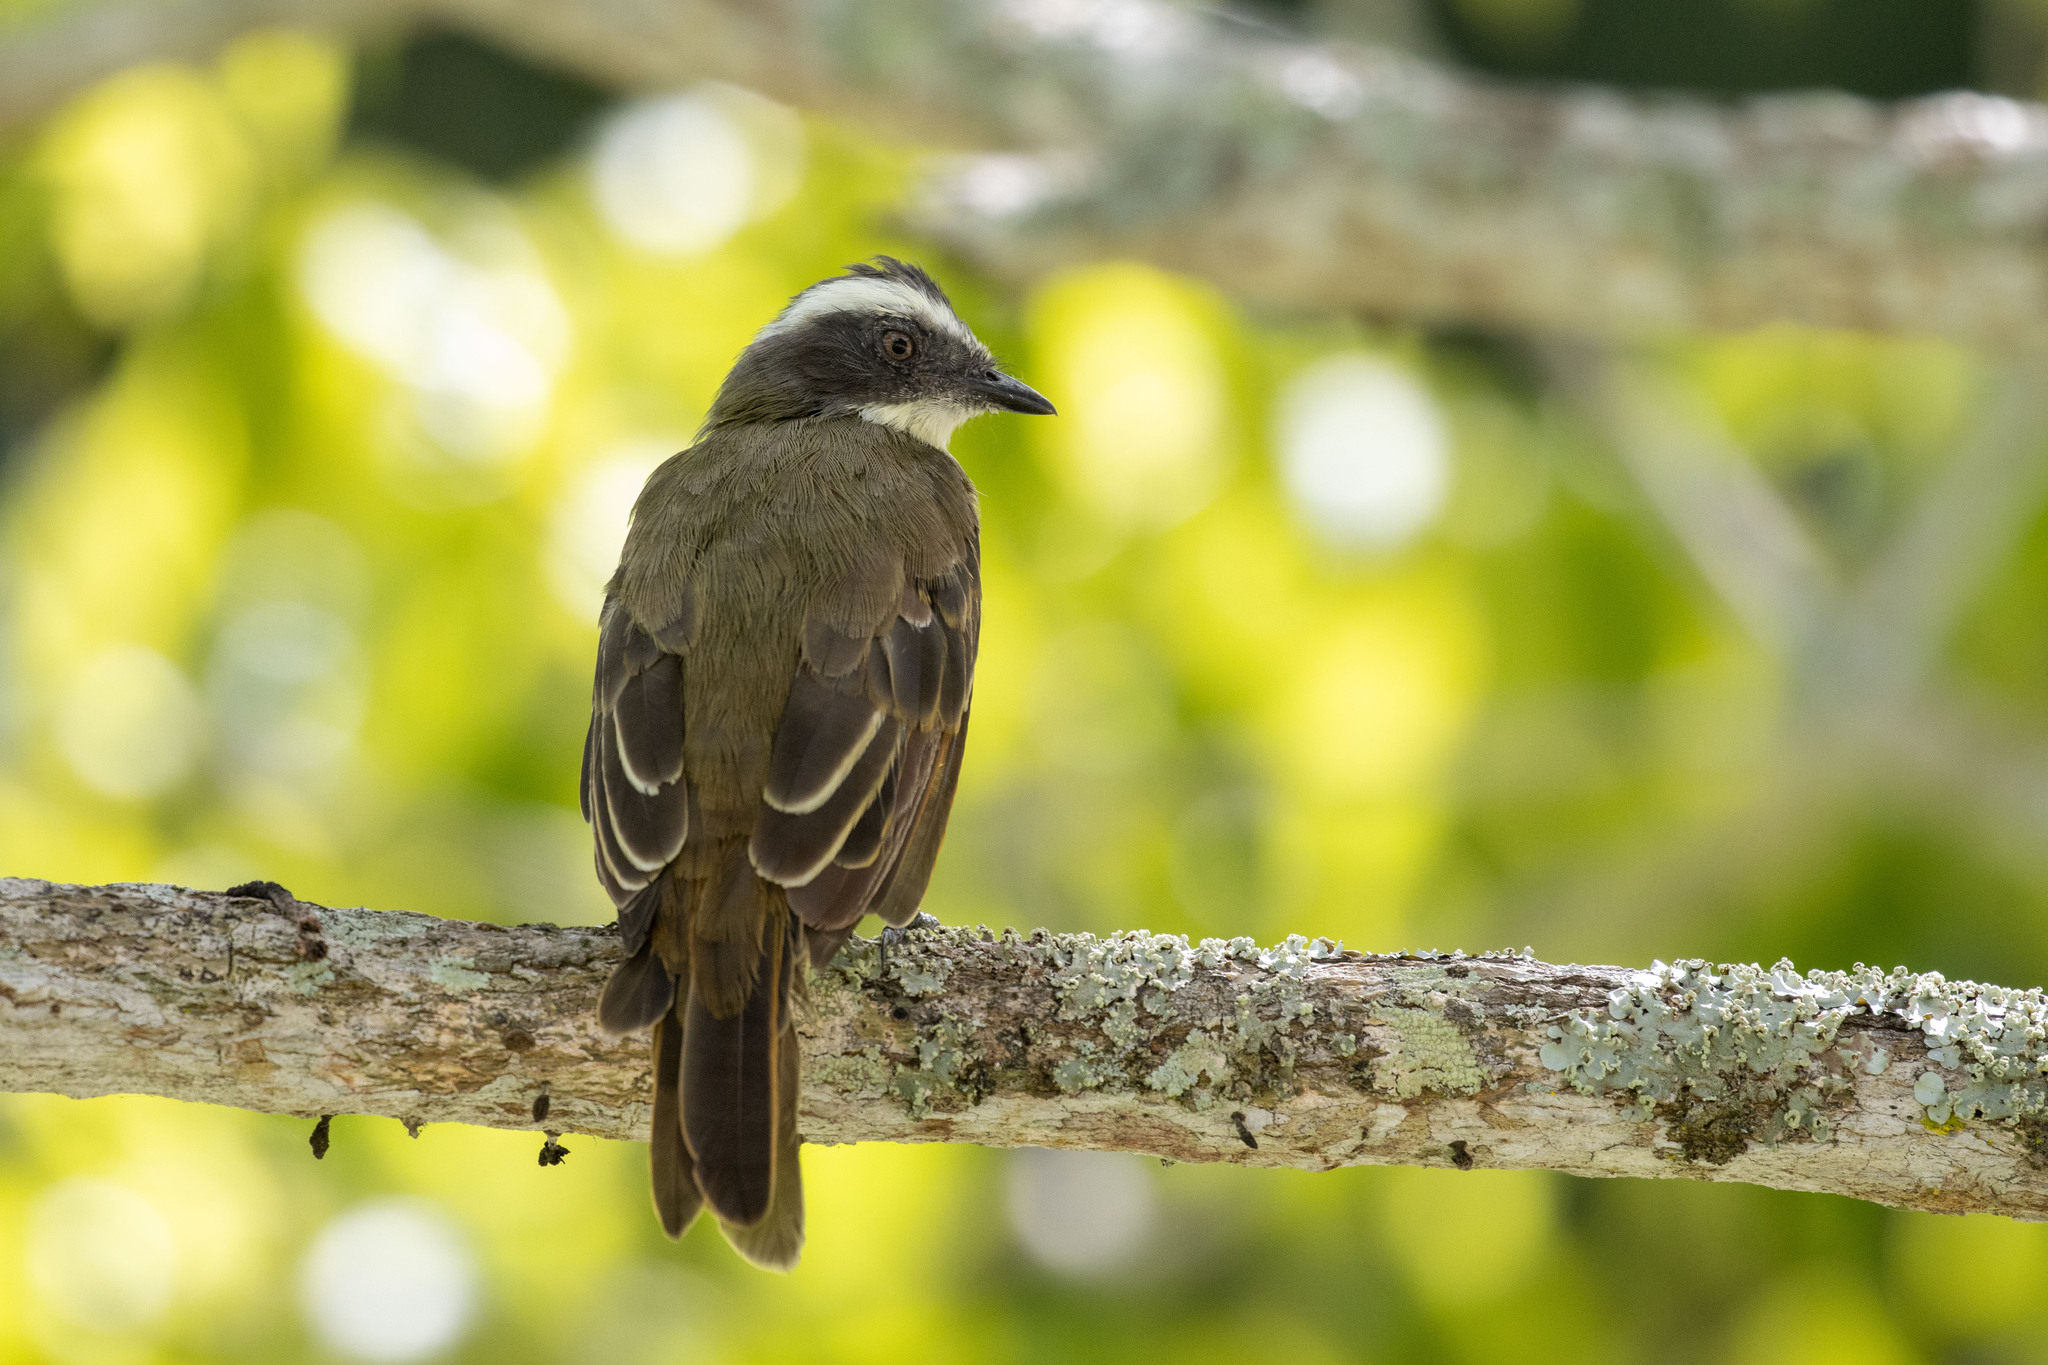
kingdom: Animalia
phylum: Chordata
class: Aves
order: Passeriformes
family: Tyrannidae
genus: Myiozetetes
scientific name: Myiozetetes similis
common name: Social flycatcher
